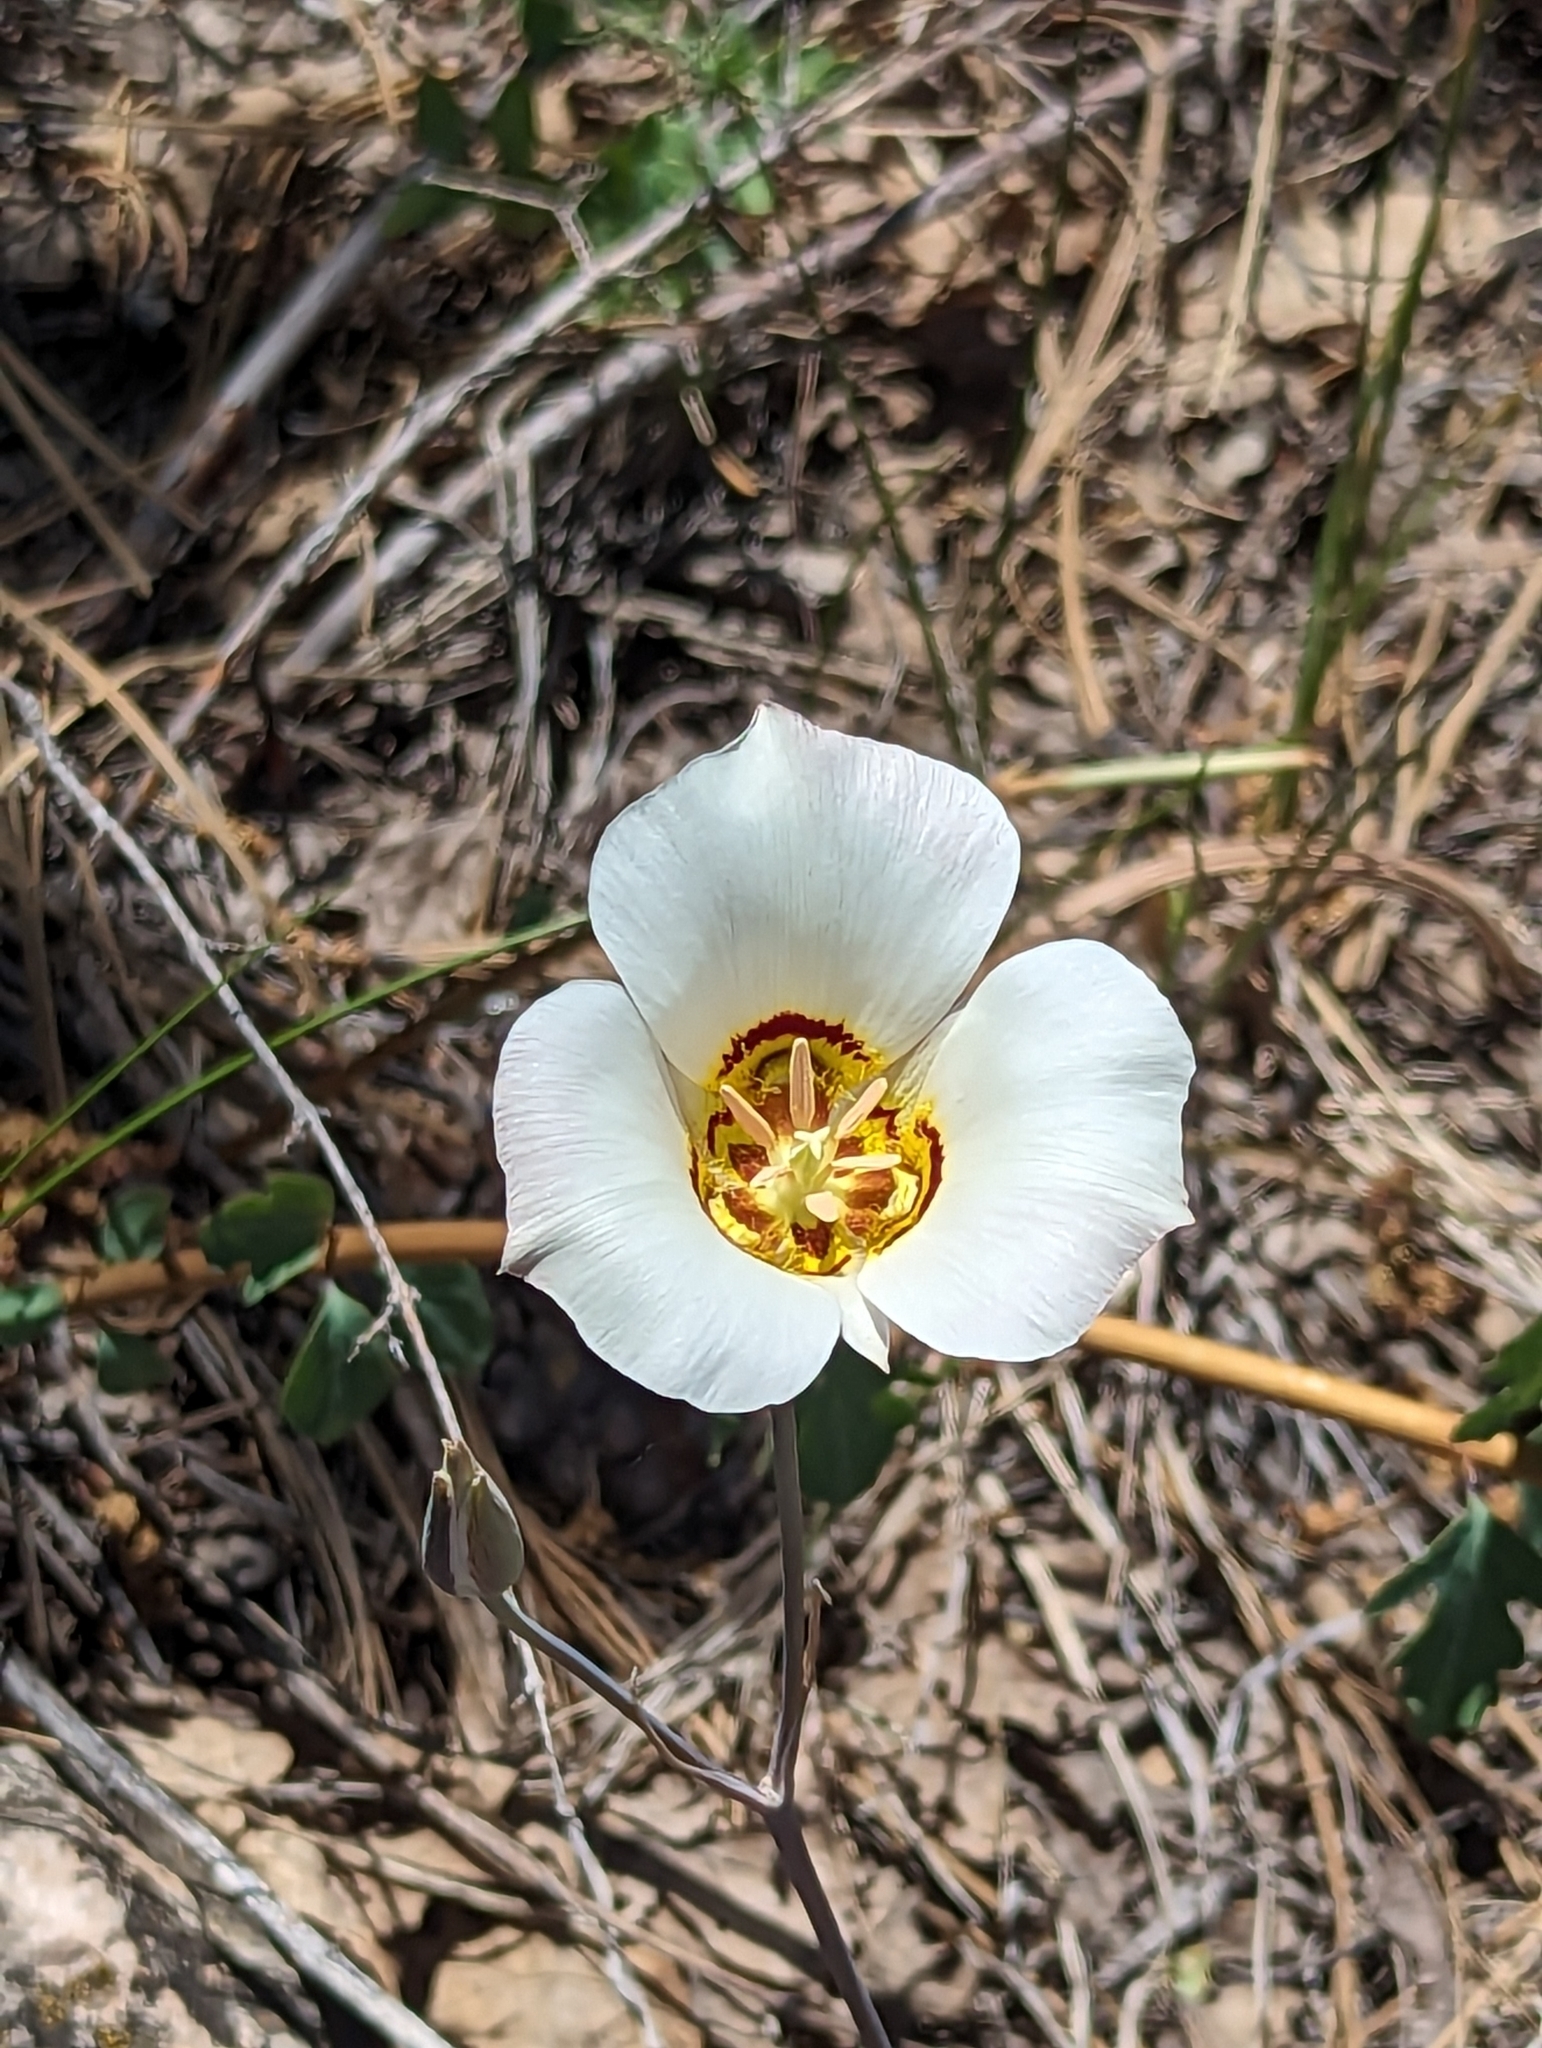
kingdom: Plantae
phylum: Tracheophyta
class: Liliopsida
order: Liliales
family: Liliaceae
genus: Calochortus
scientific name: Calochortus nuttallii
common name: Sego-lily
